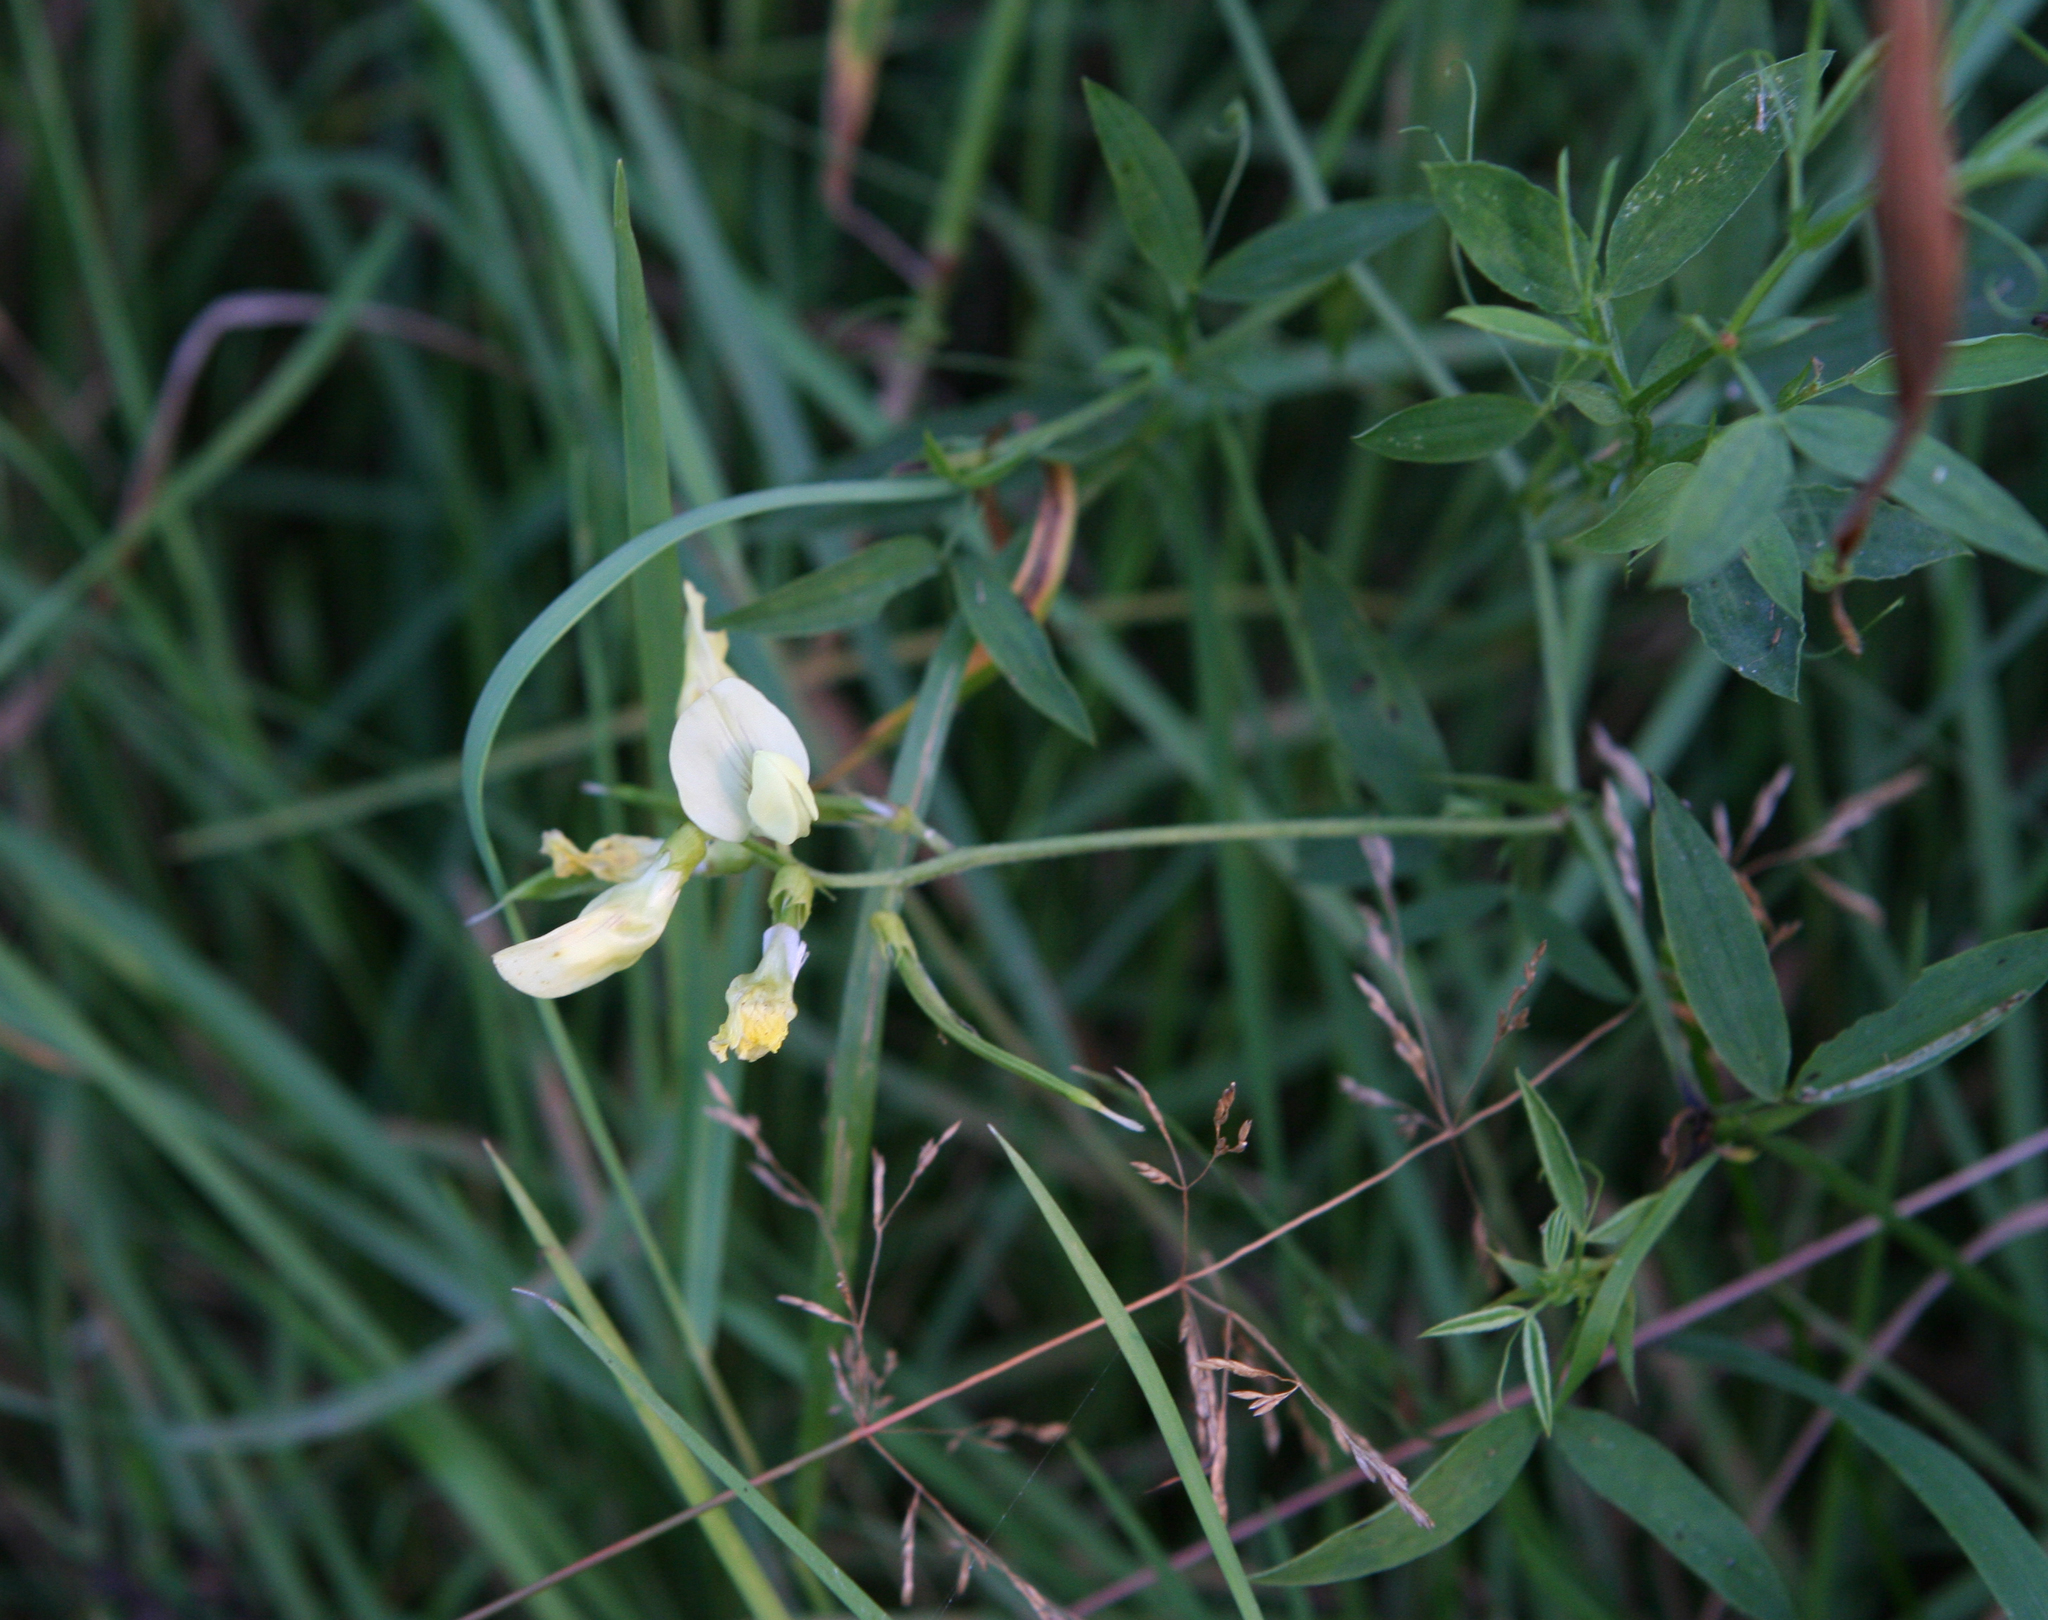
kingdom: Plantae
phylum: Tracheophyta
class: Magnoliopsida
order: Fabales
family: Fabaceae
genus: Lathyrus
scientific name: Lathyrus pratensis
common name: Meadow vetchling
